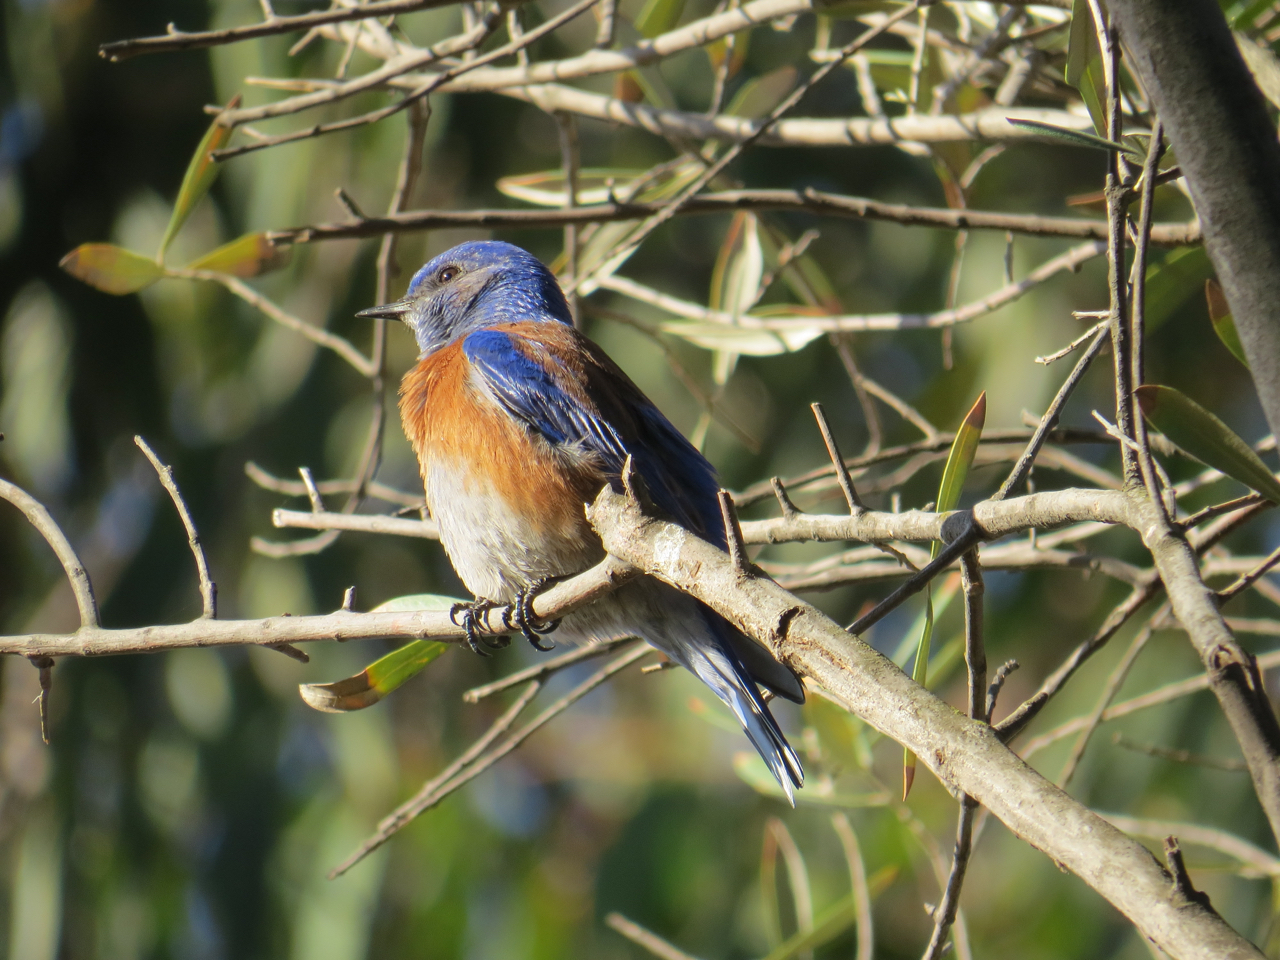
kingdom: Animalia
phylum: Chordata
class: Aves
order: Passeriformes
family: Turdidae
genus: Sialia
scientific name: Sialia mexicana
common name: Western bluebird
